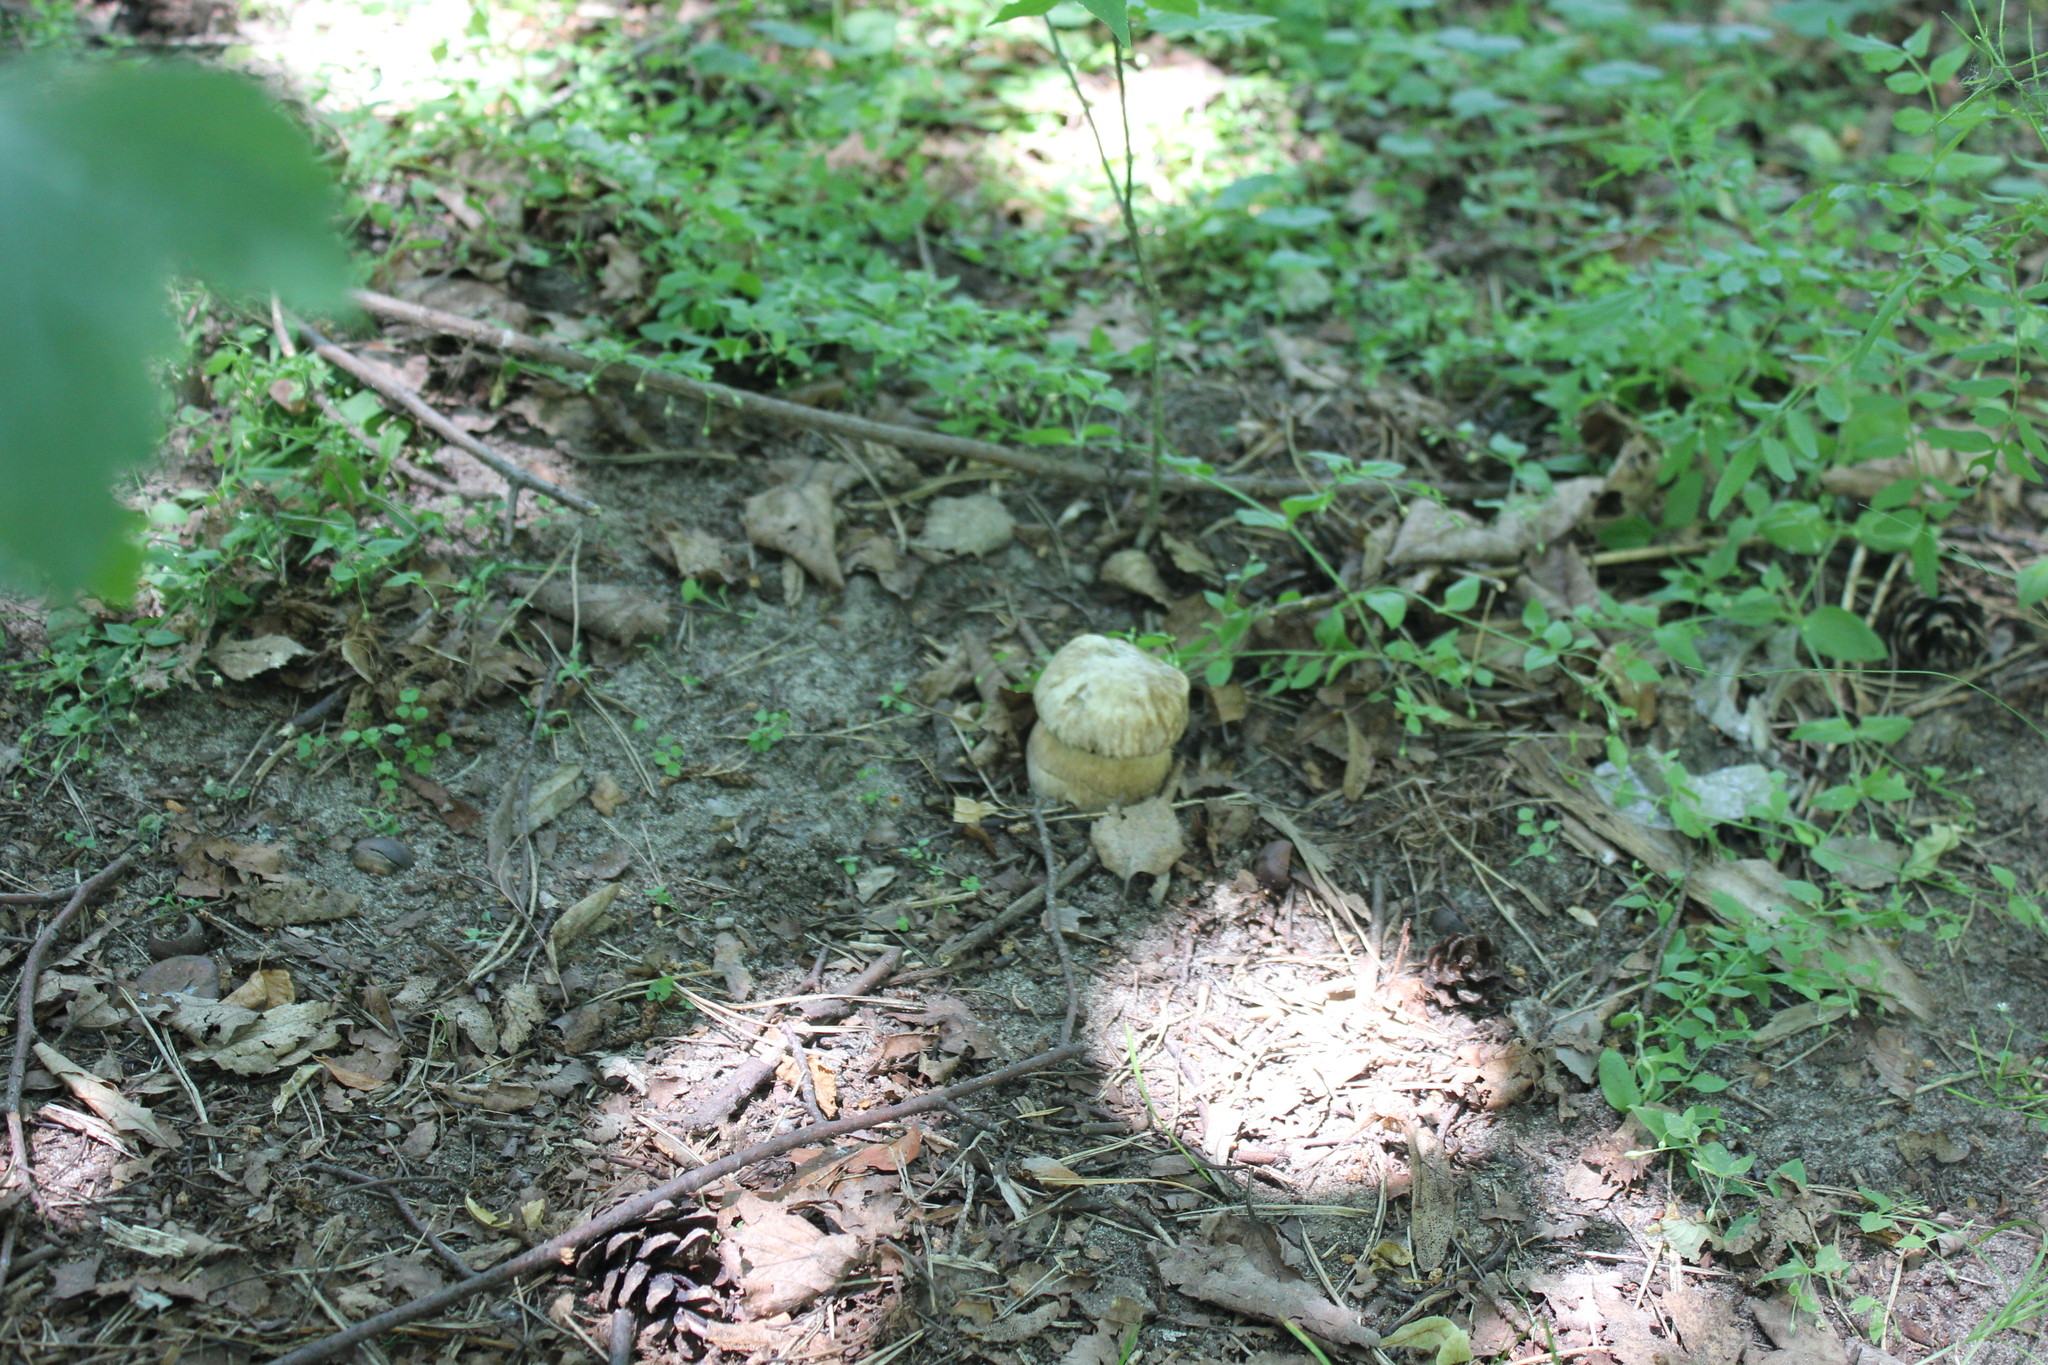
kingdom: Fungi
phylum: Basidiomycota
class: Agaricomycetes
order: Boletales
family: Boletaceae
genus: Boletus
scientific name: Boletus reticulatus
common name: Summer bolete
